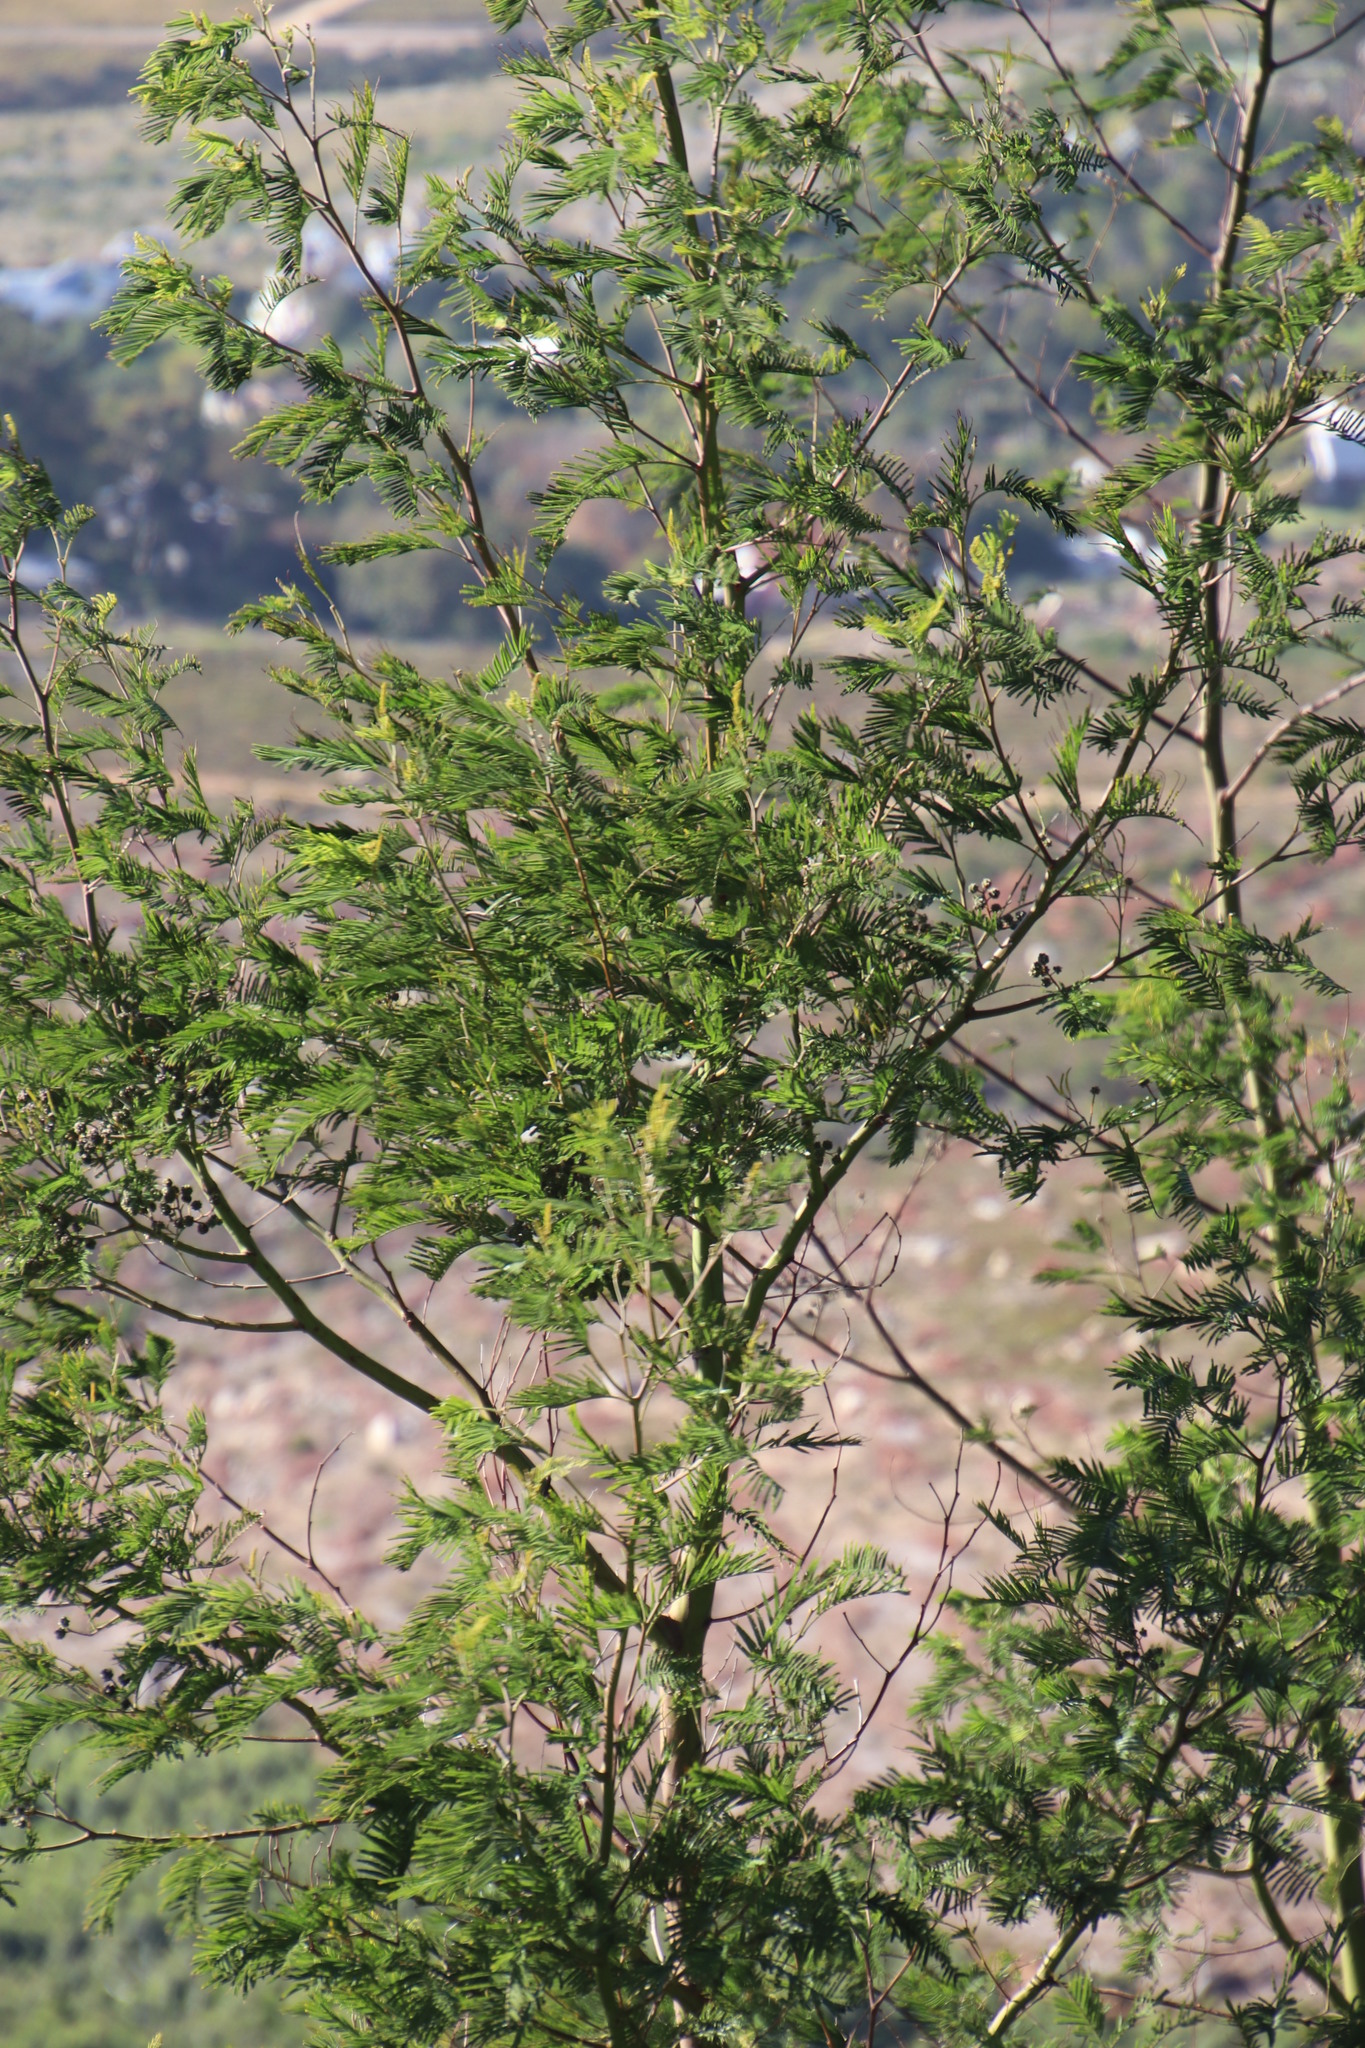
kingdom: Plantae
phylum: Tracheophyta
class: Magnoliopsida
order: Fabales
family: Fabaceae
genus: Acacia
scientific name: Acacia mearnsii
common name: Black wattle
